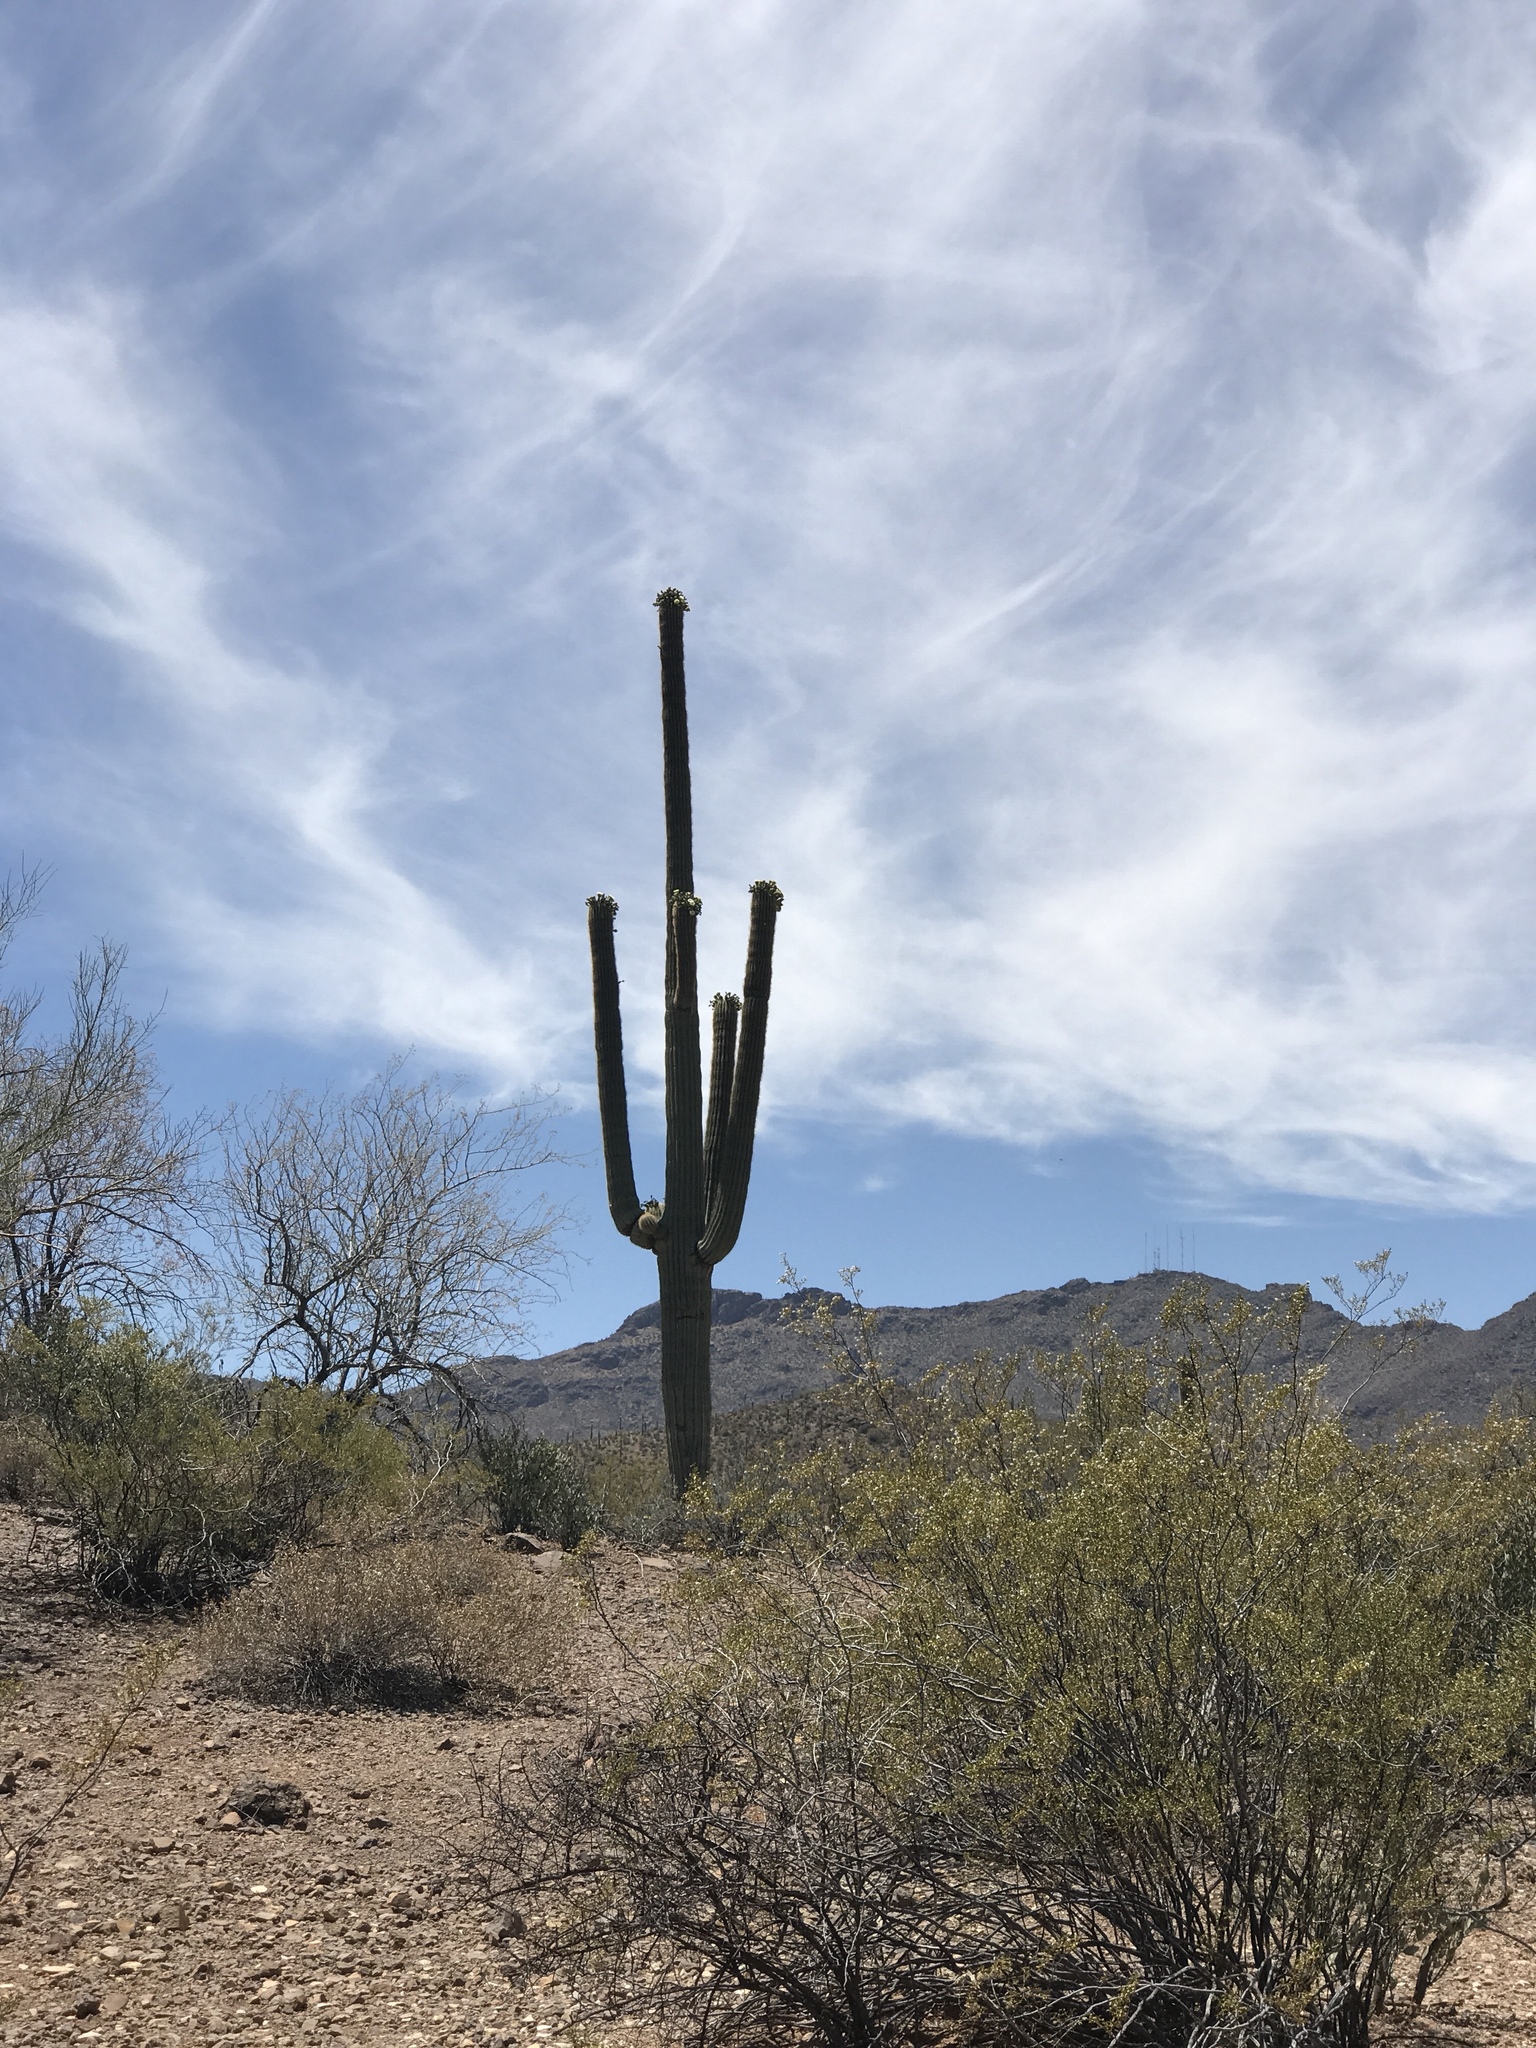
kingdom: Plantae
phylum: Tracheophyta
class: Magnoliopsida
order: Caryophyllales
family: Cactaceae
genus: Carnegiea
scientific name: Carnegiea gigantea
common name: Saguaro
